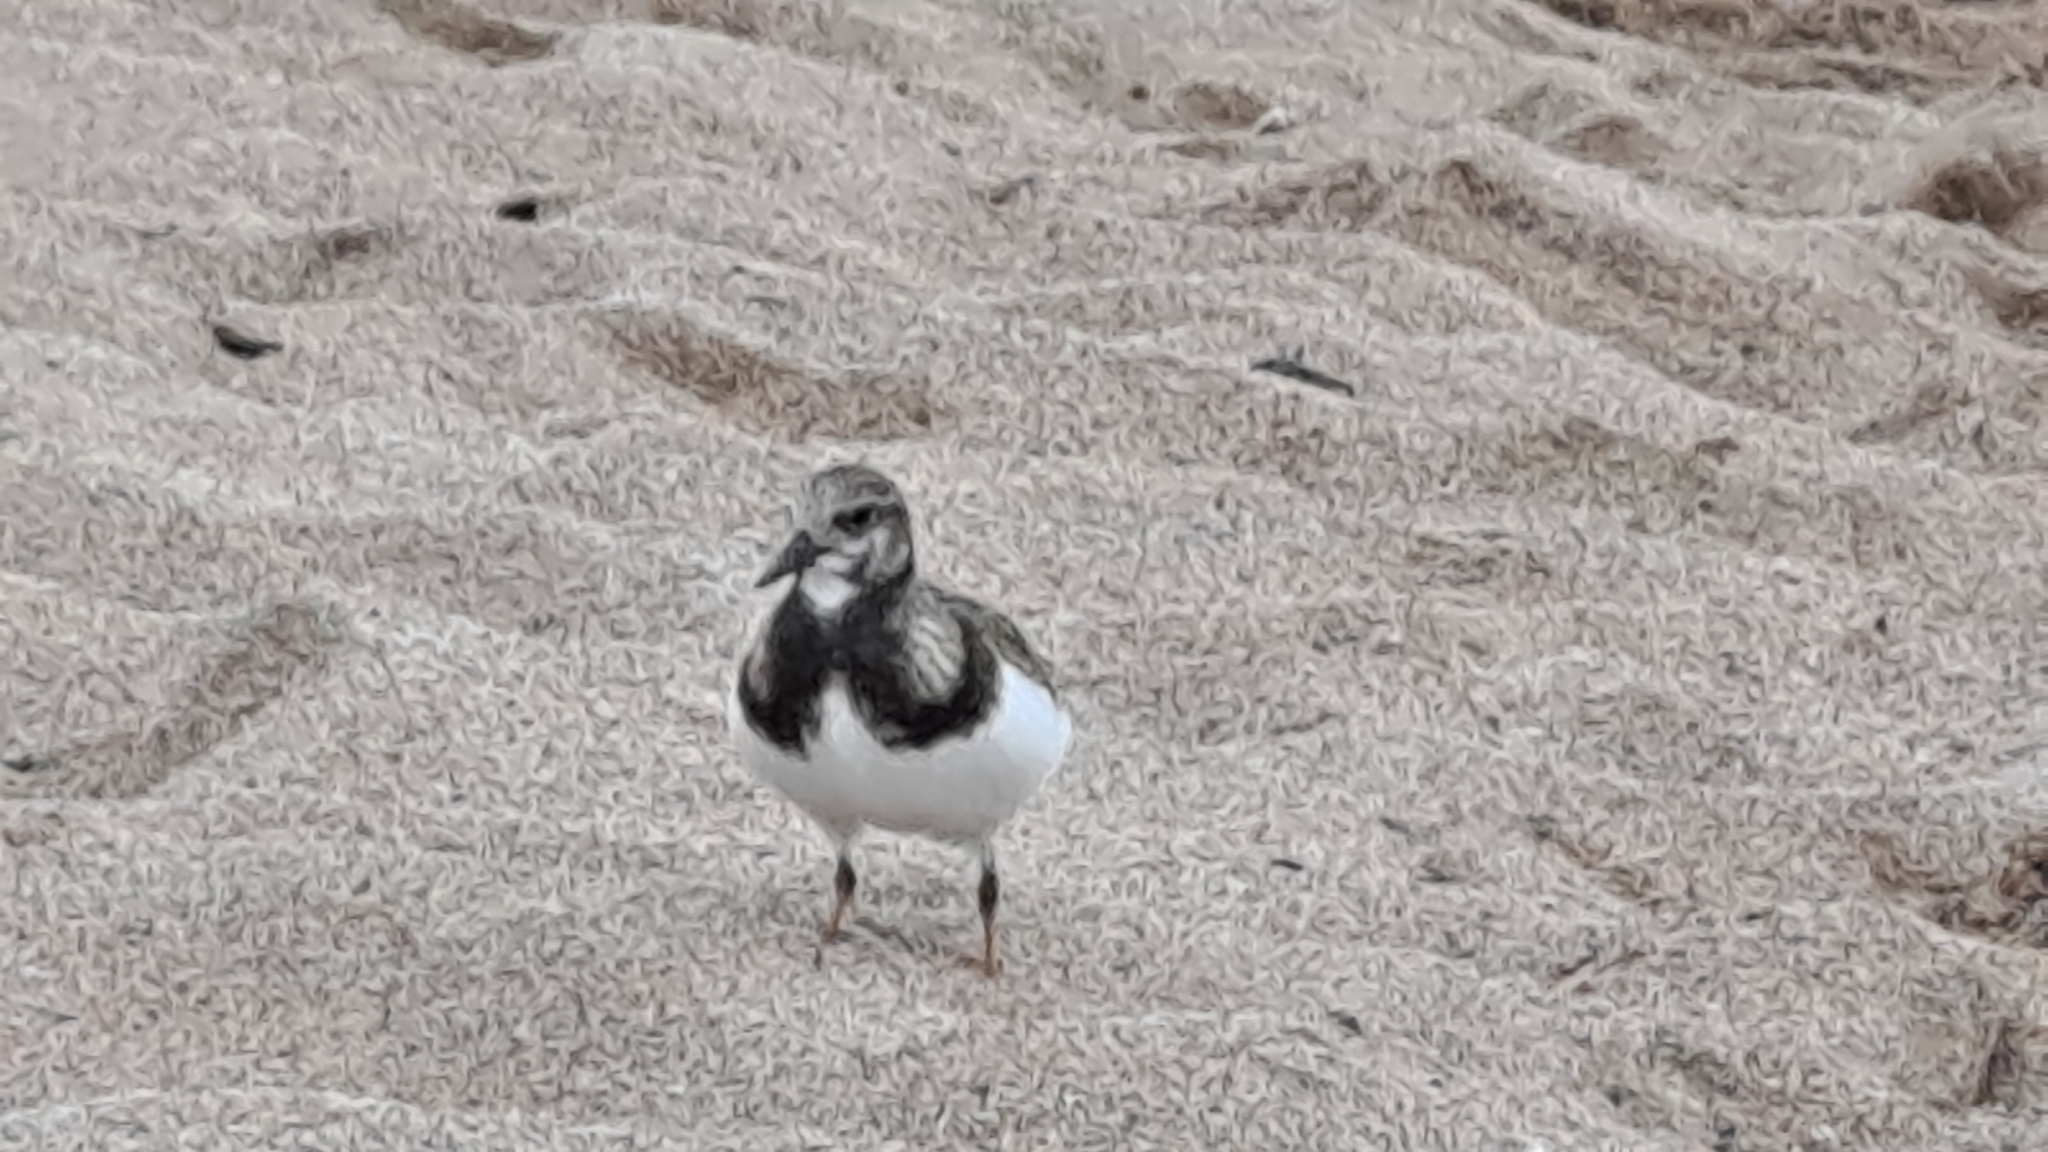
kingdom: Animalia
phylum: Chordata
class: Aves
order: Charadriiformes
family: Scolopacidae
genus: Arenaria
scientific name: Arenaria interpres
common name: Ruddy turnstone
